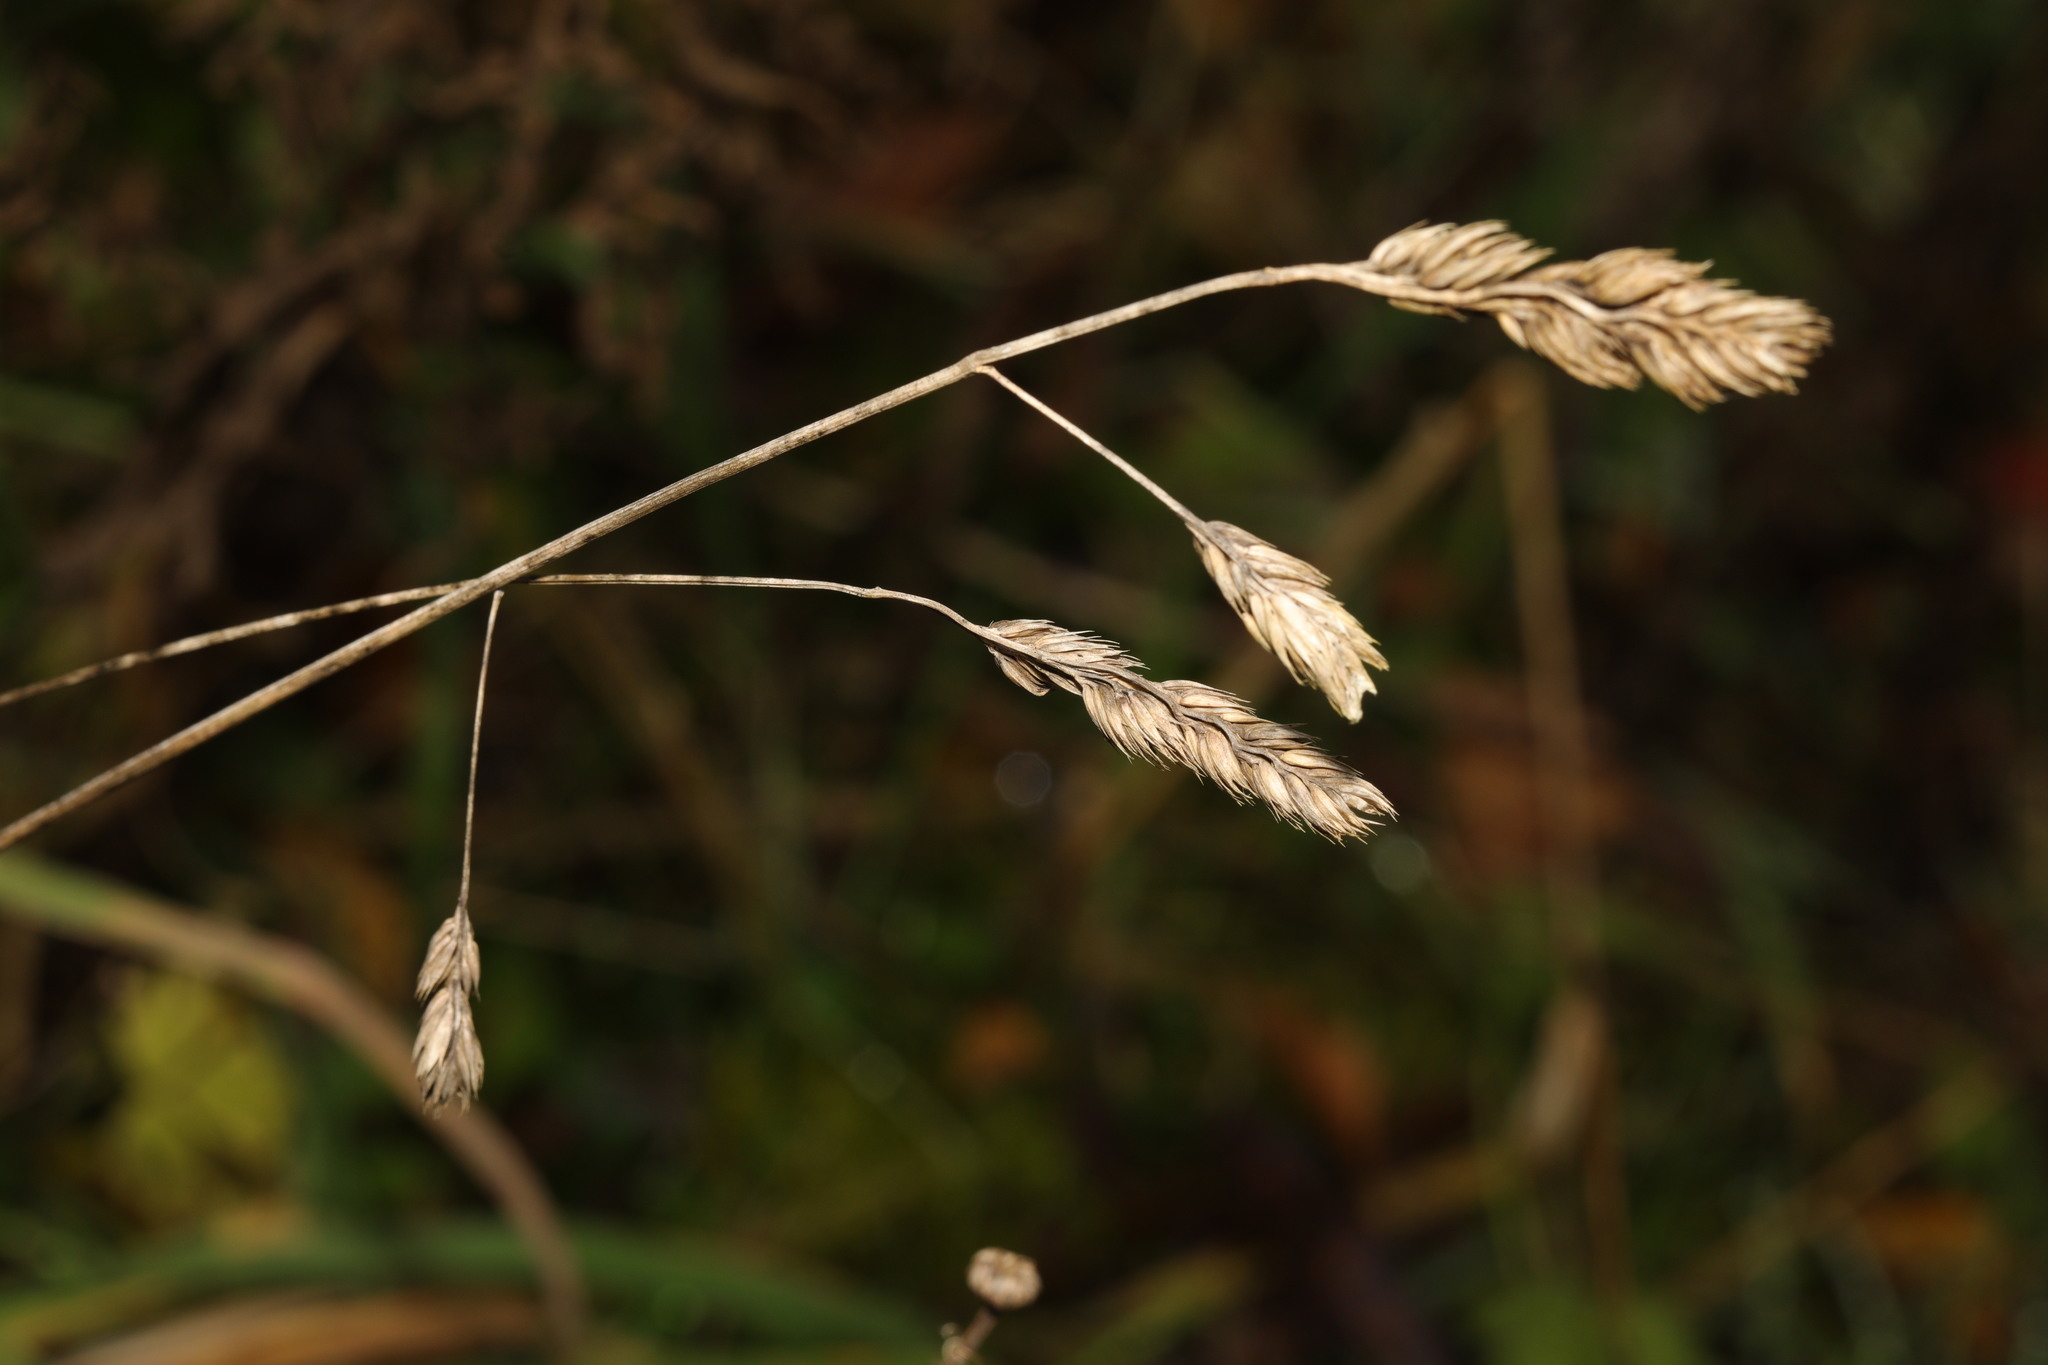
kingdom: Plantae
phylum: Tracheophyta
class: Liliopsida
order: Poales
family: Poaceae
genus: Dactylis
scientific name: Dactylis glomerata
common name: Orchardgrass
